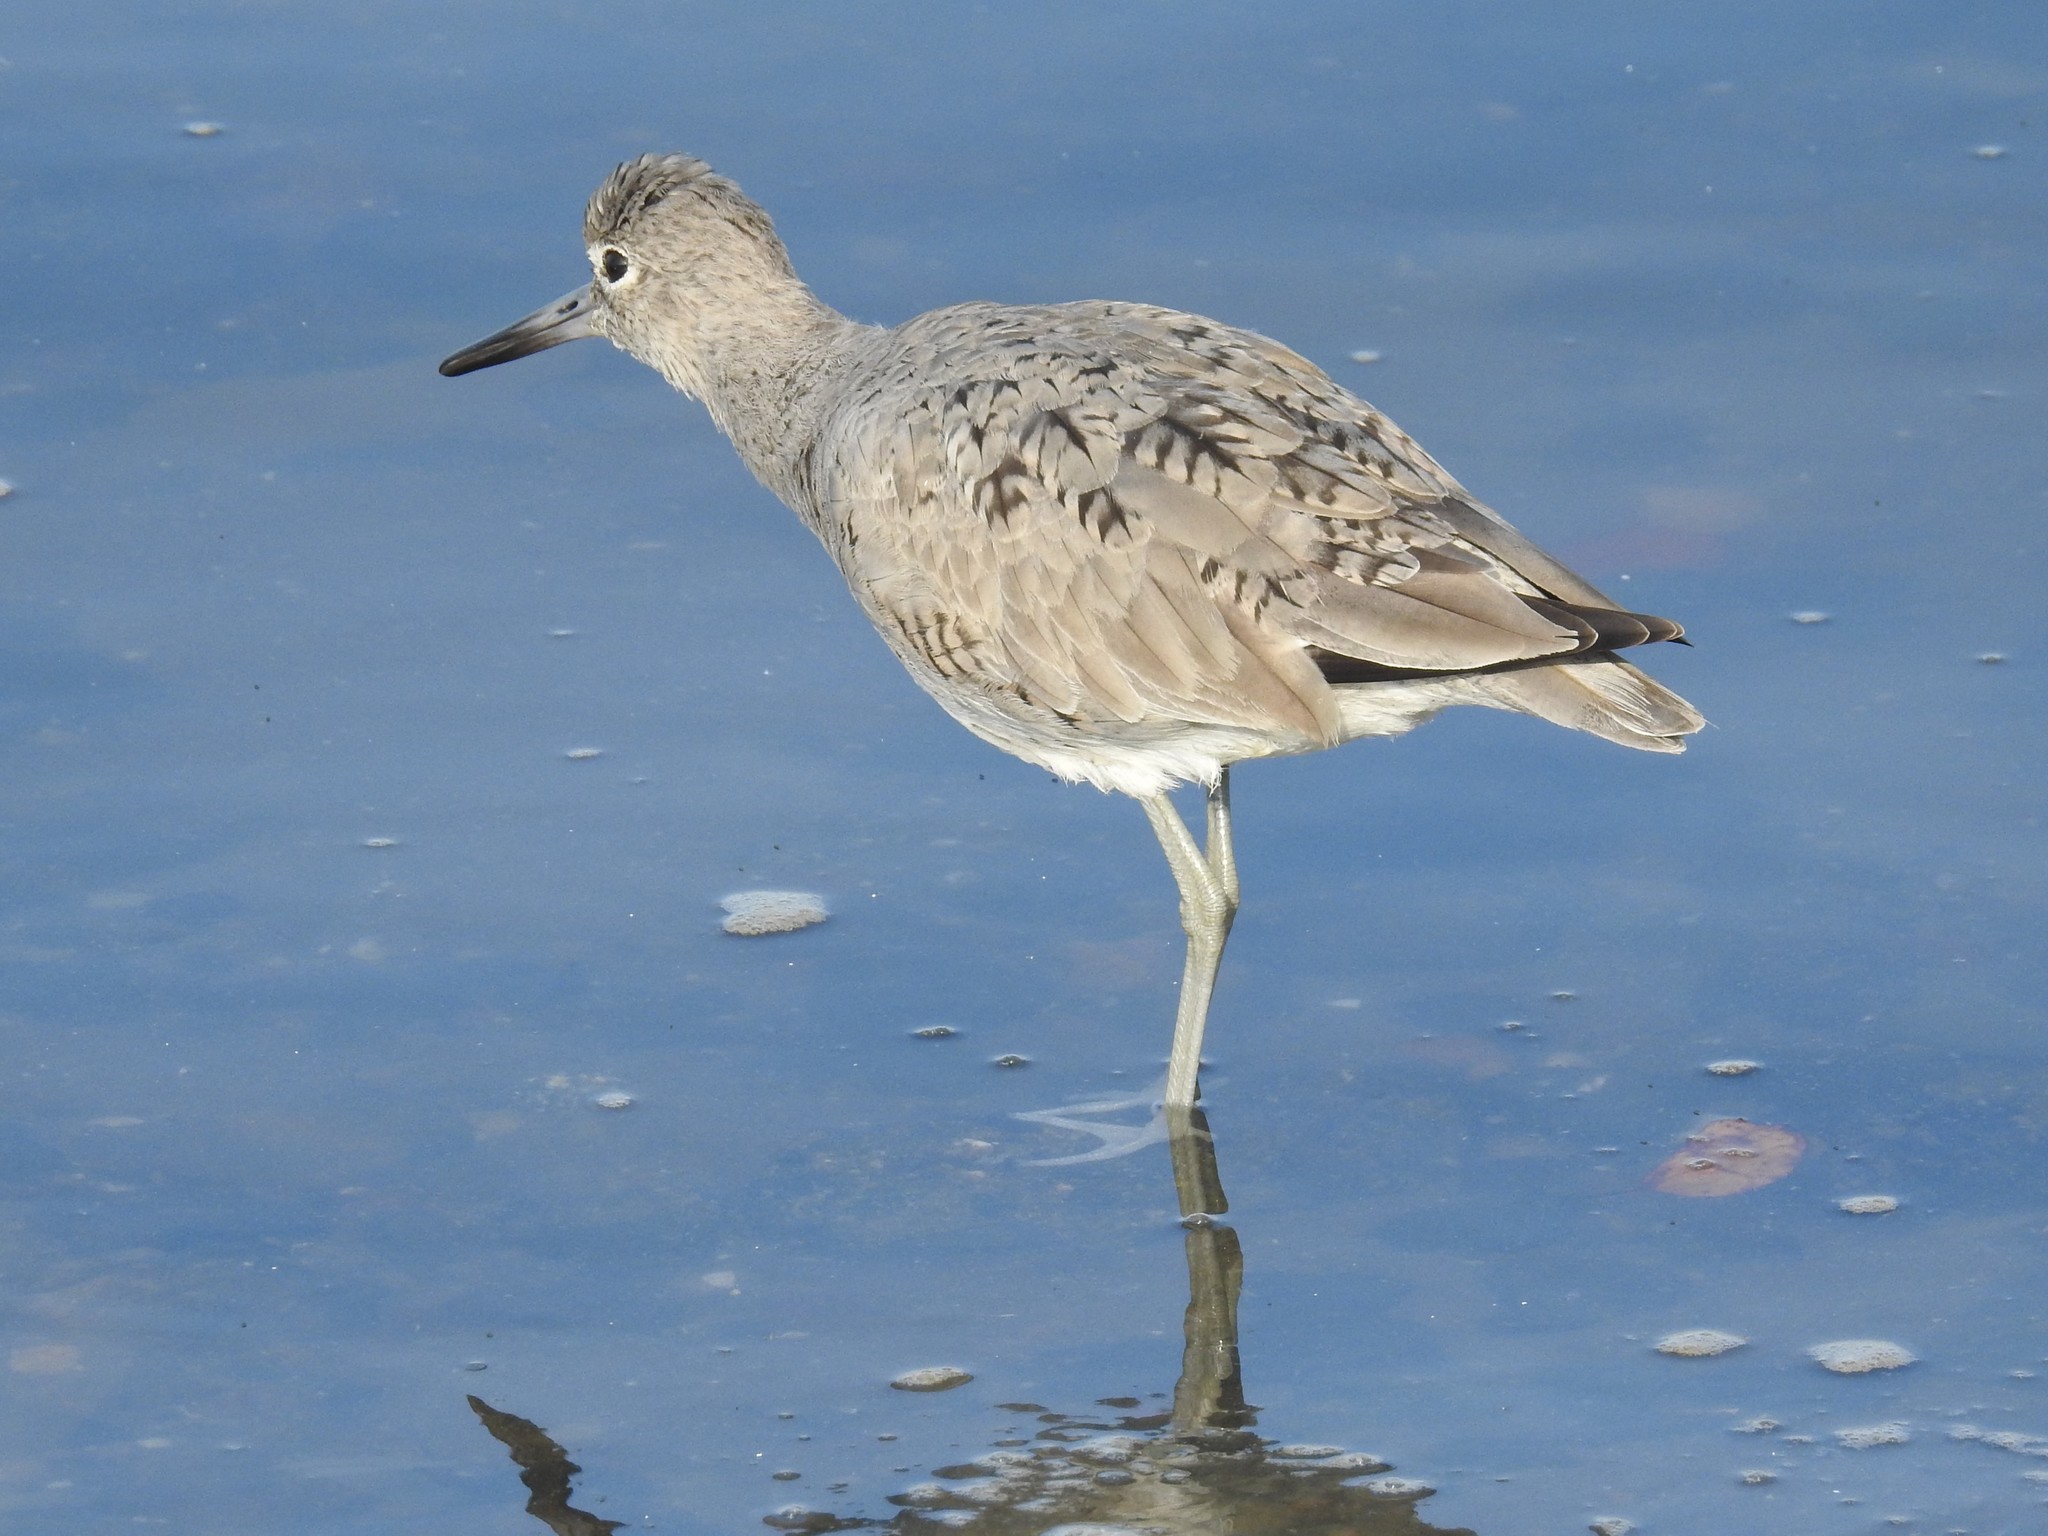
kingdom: Animalia
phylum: Chordata
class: Aves
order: Charadriiformes
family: Scolopacidae
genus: Tringa
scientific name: Tringa semipalmata
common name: Willet
